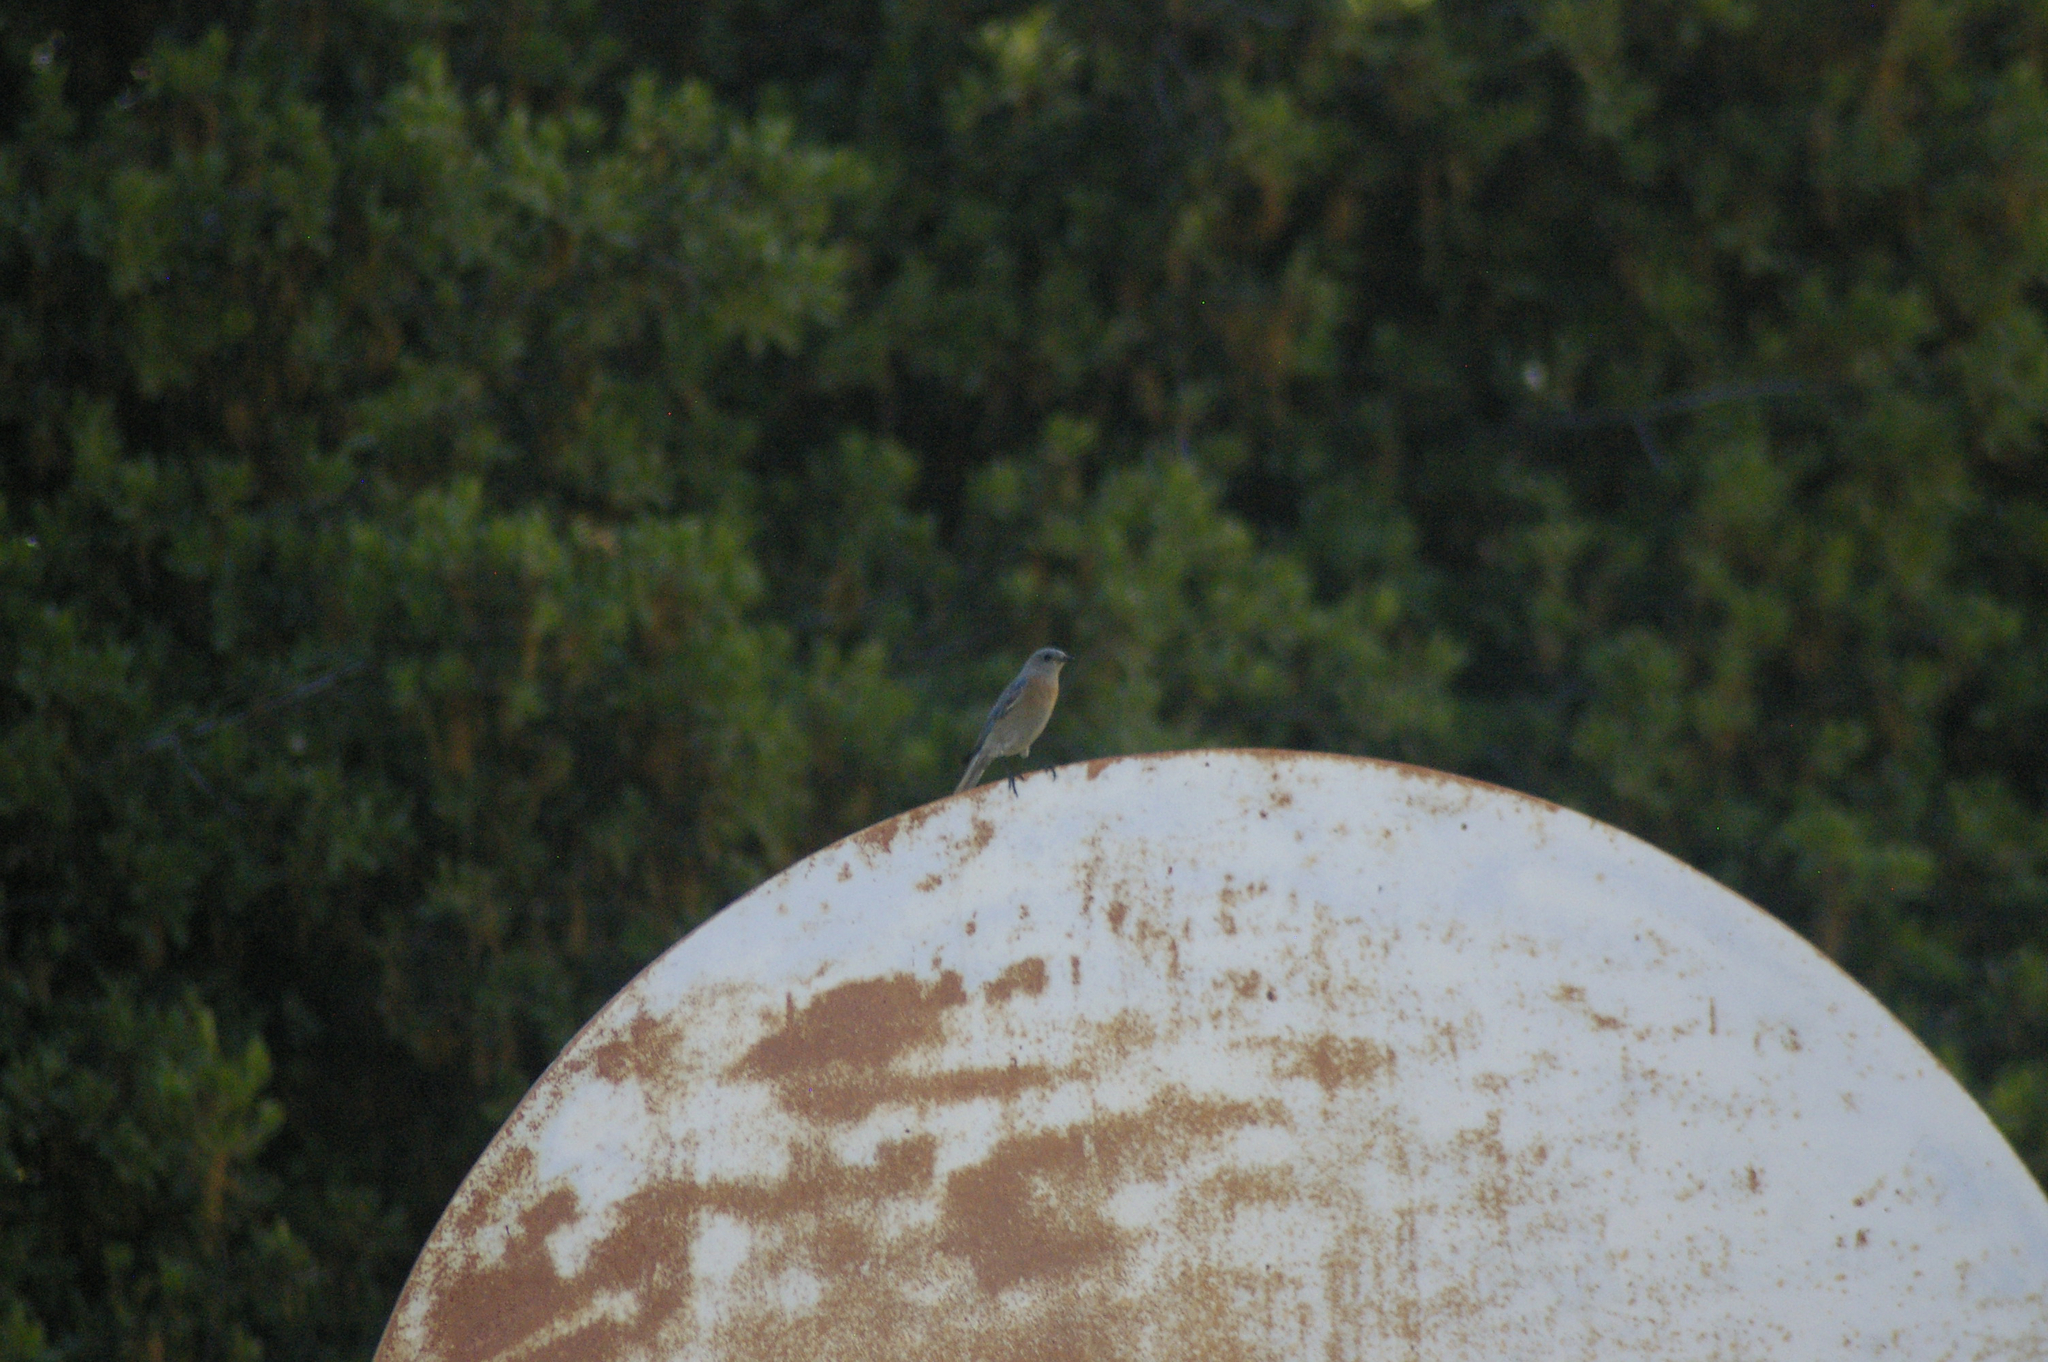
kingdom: Animalia
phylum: Chordata
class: Aves
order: Passeriformes
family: Turdidae
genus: Sialia
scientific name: Sialia mexicana
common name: Western bluebird
